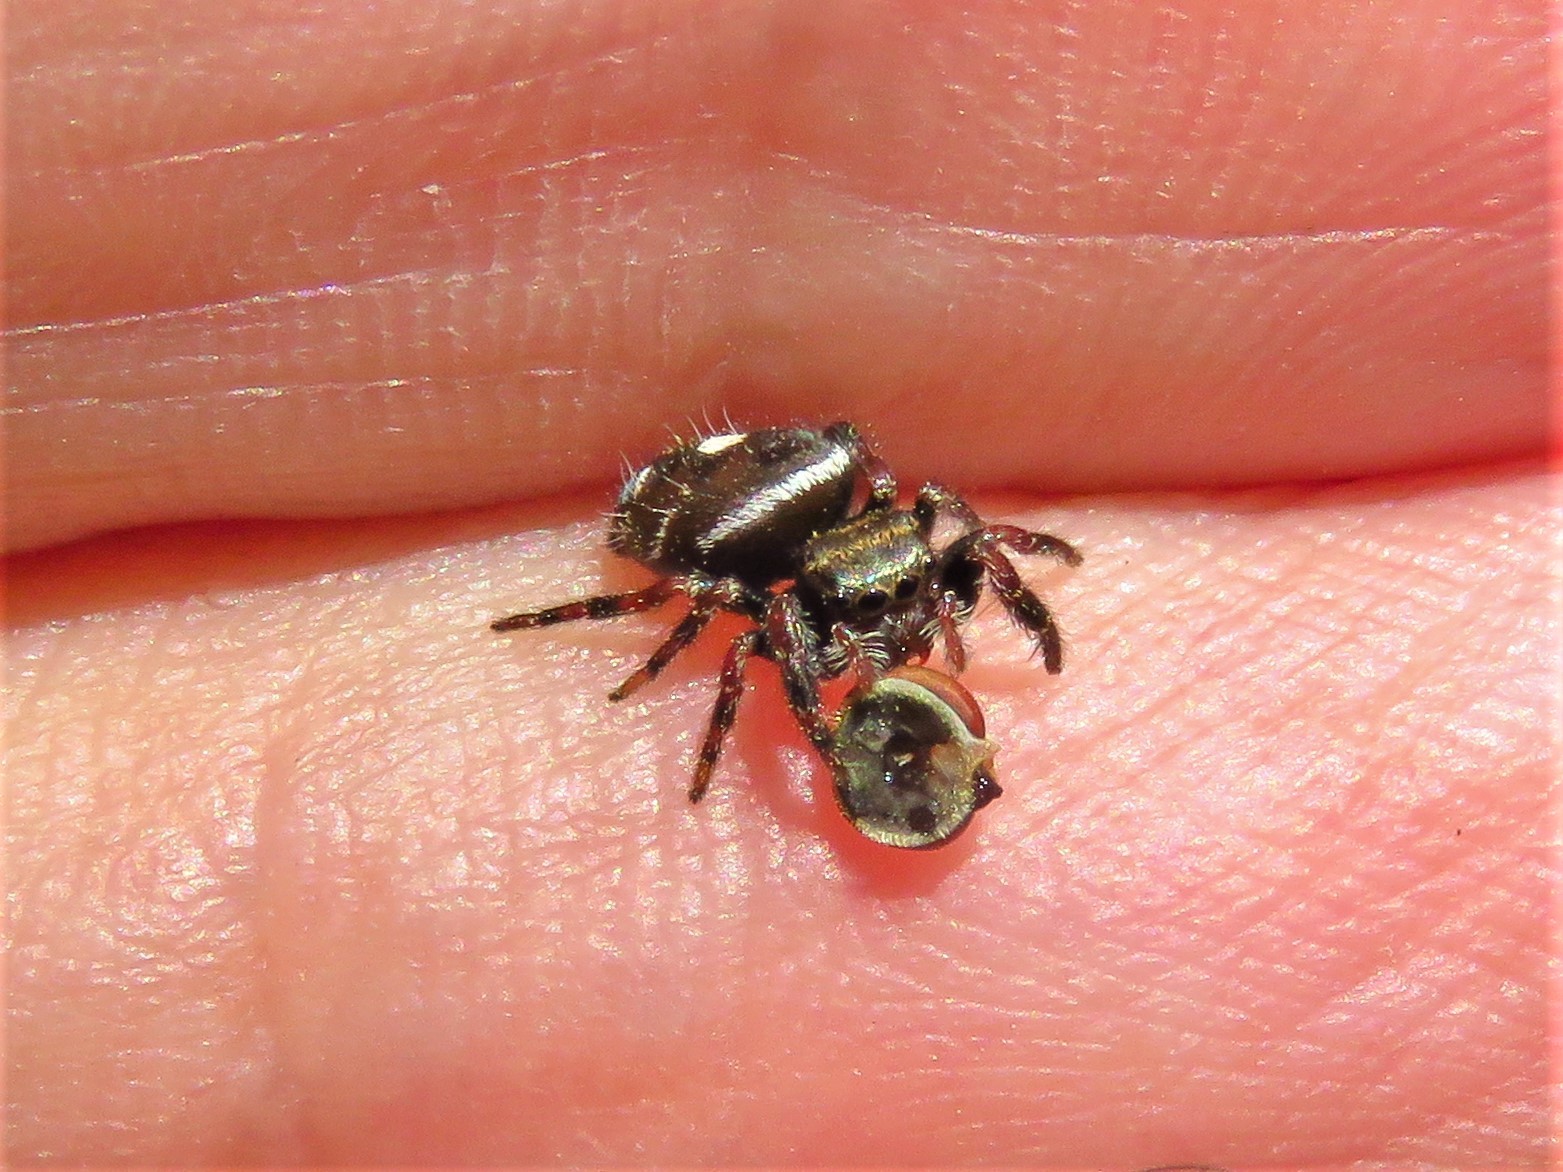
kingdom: Animalia
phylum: Arthropoda
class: Arachnida
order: Araneae
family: Salticidae
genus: Phidippus
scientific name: Phidippus audax
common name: Bold jumper
